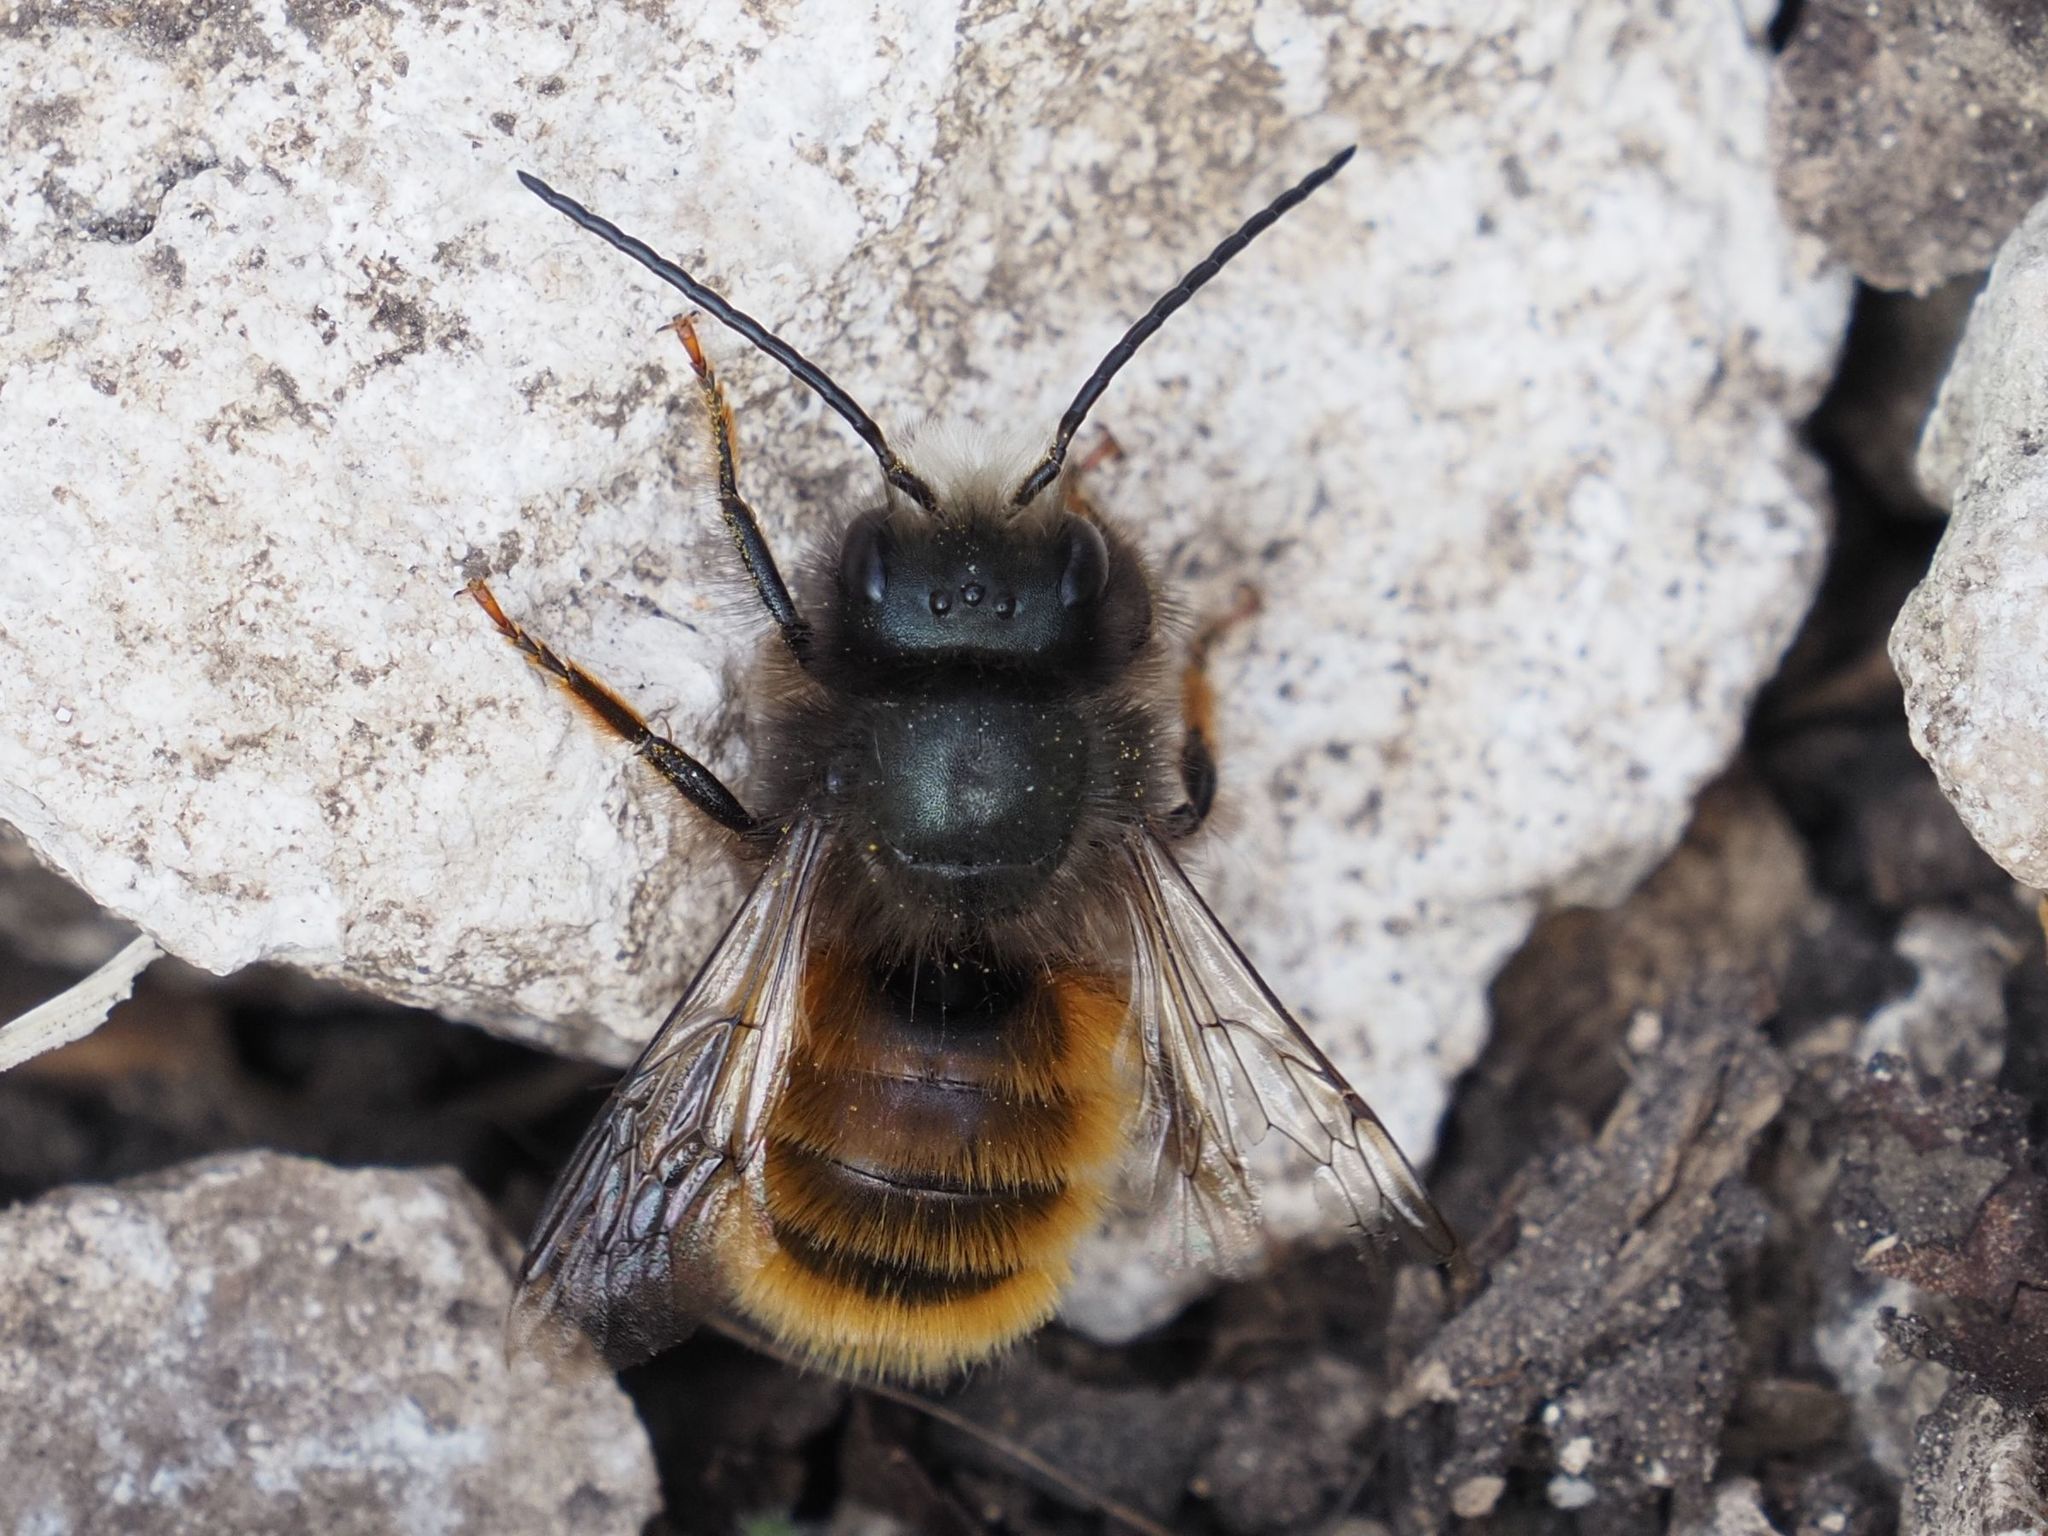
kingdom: Animalia
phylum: Arthropoda
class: Insecta
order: Hymenoptera
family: Megachilidae
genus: Osmia
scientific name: Osmia cornuta
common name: Mason bee
